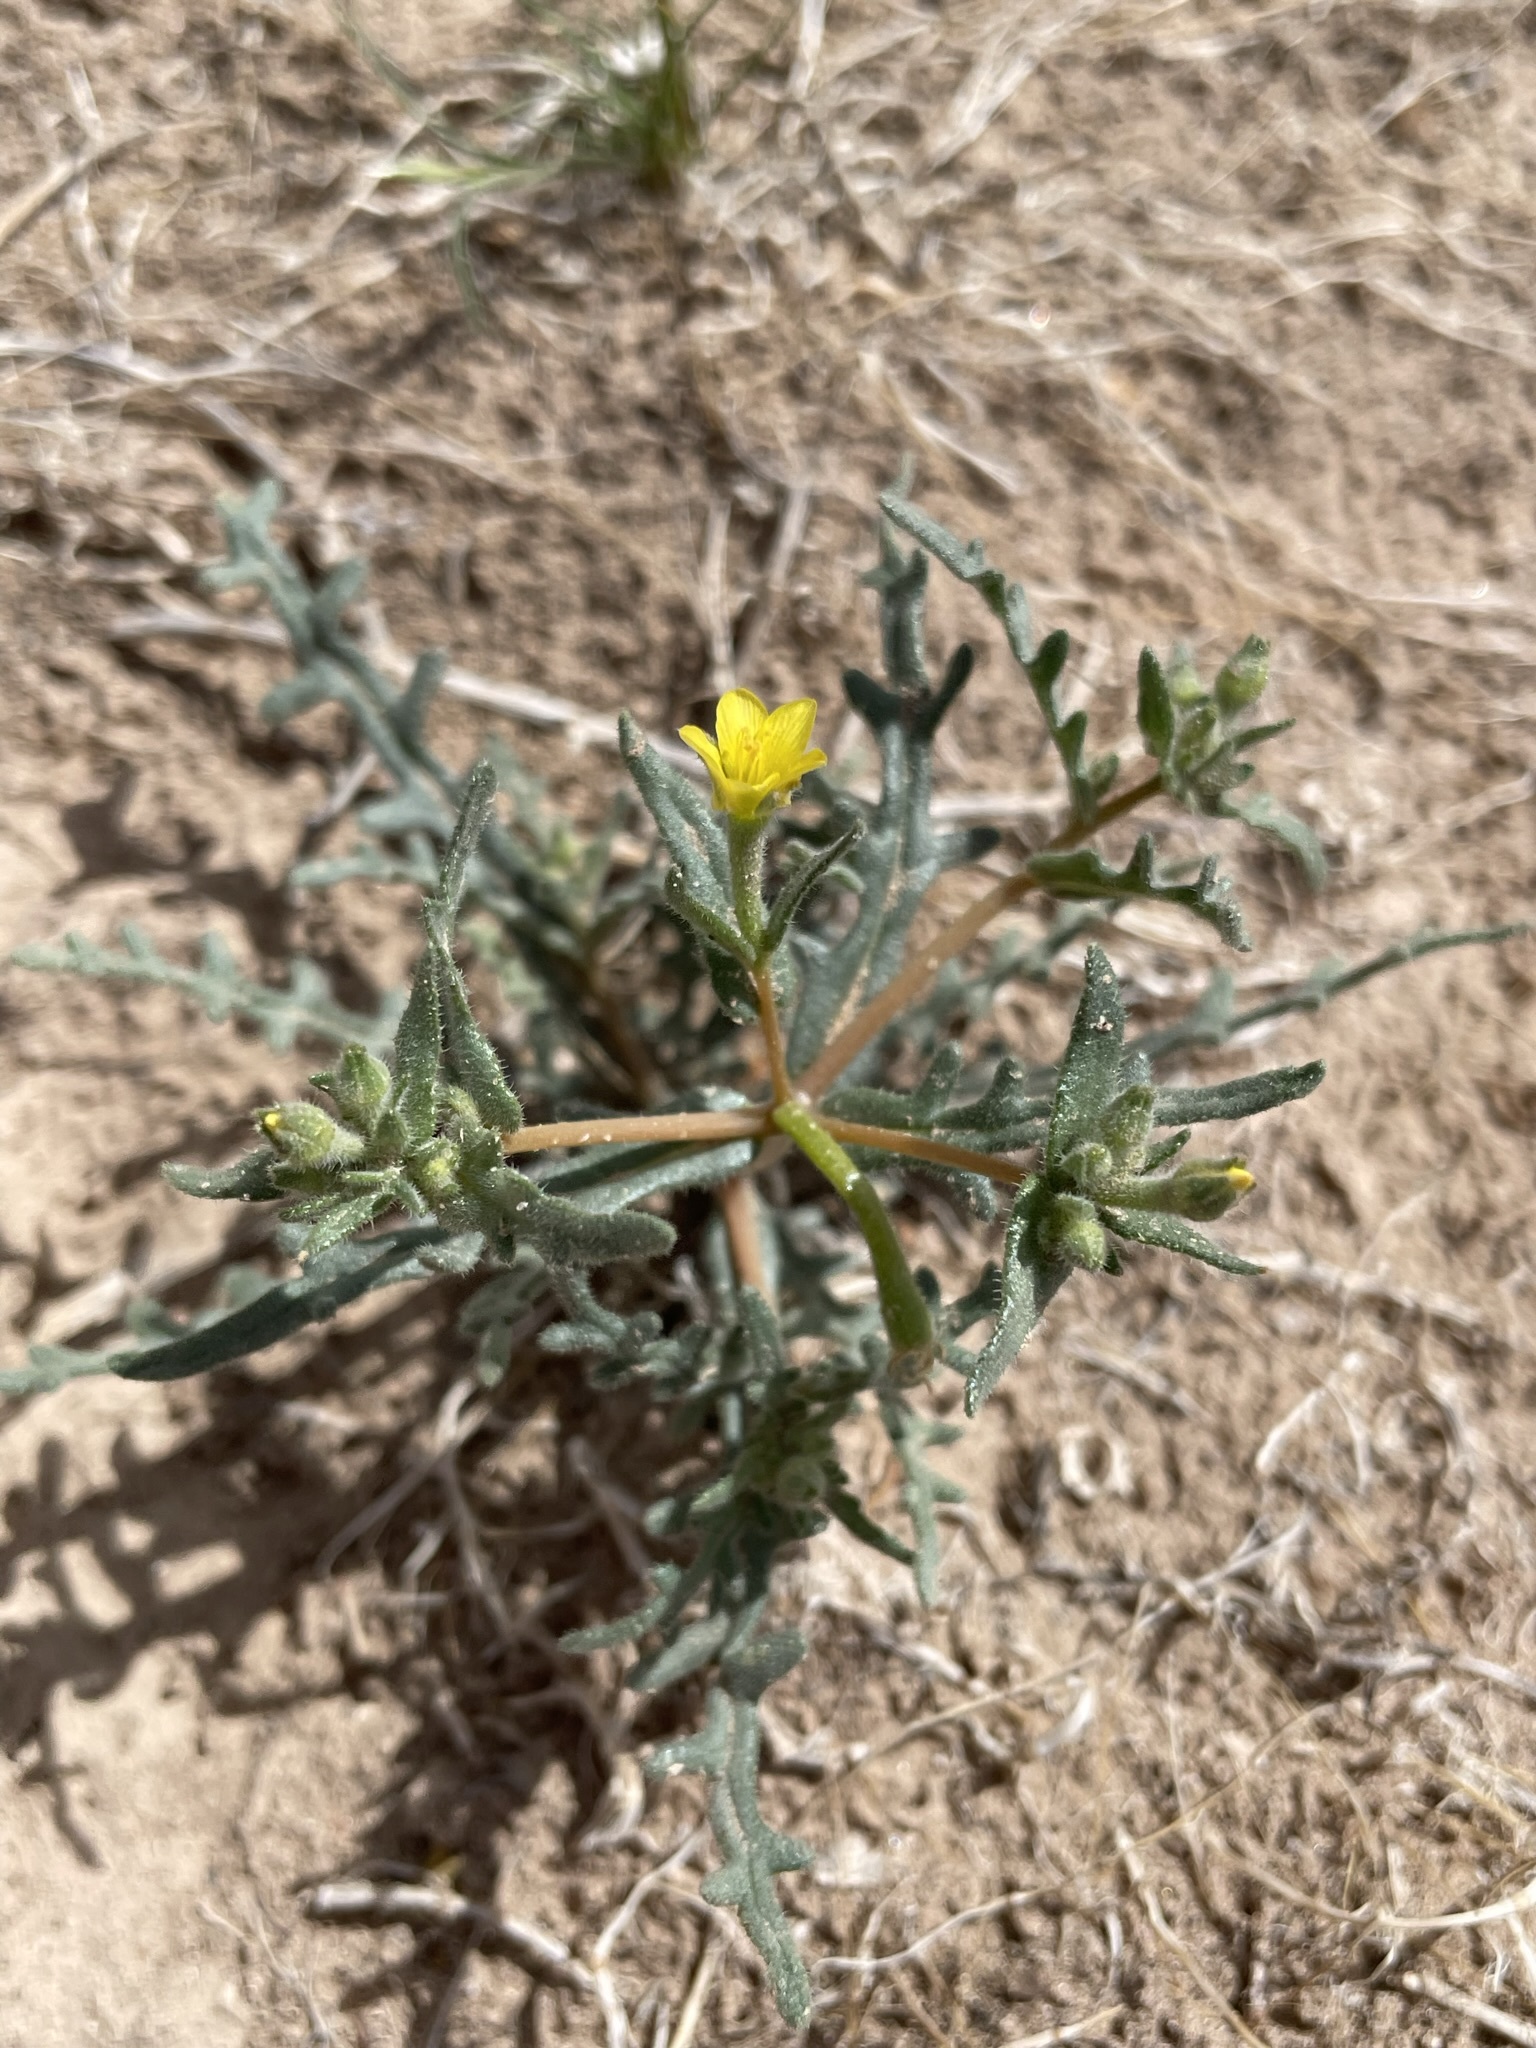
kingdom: Plantae
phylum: Tracheophyta
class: Magnoliopsida
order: Cornales
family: Loasaceae
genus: Mentzelia
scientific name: Mentzelia albicaulis
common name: White-stem blazingstar
